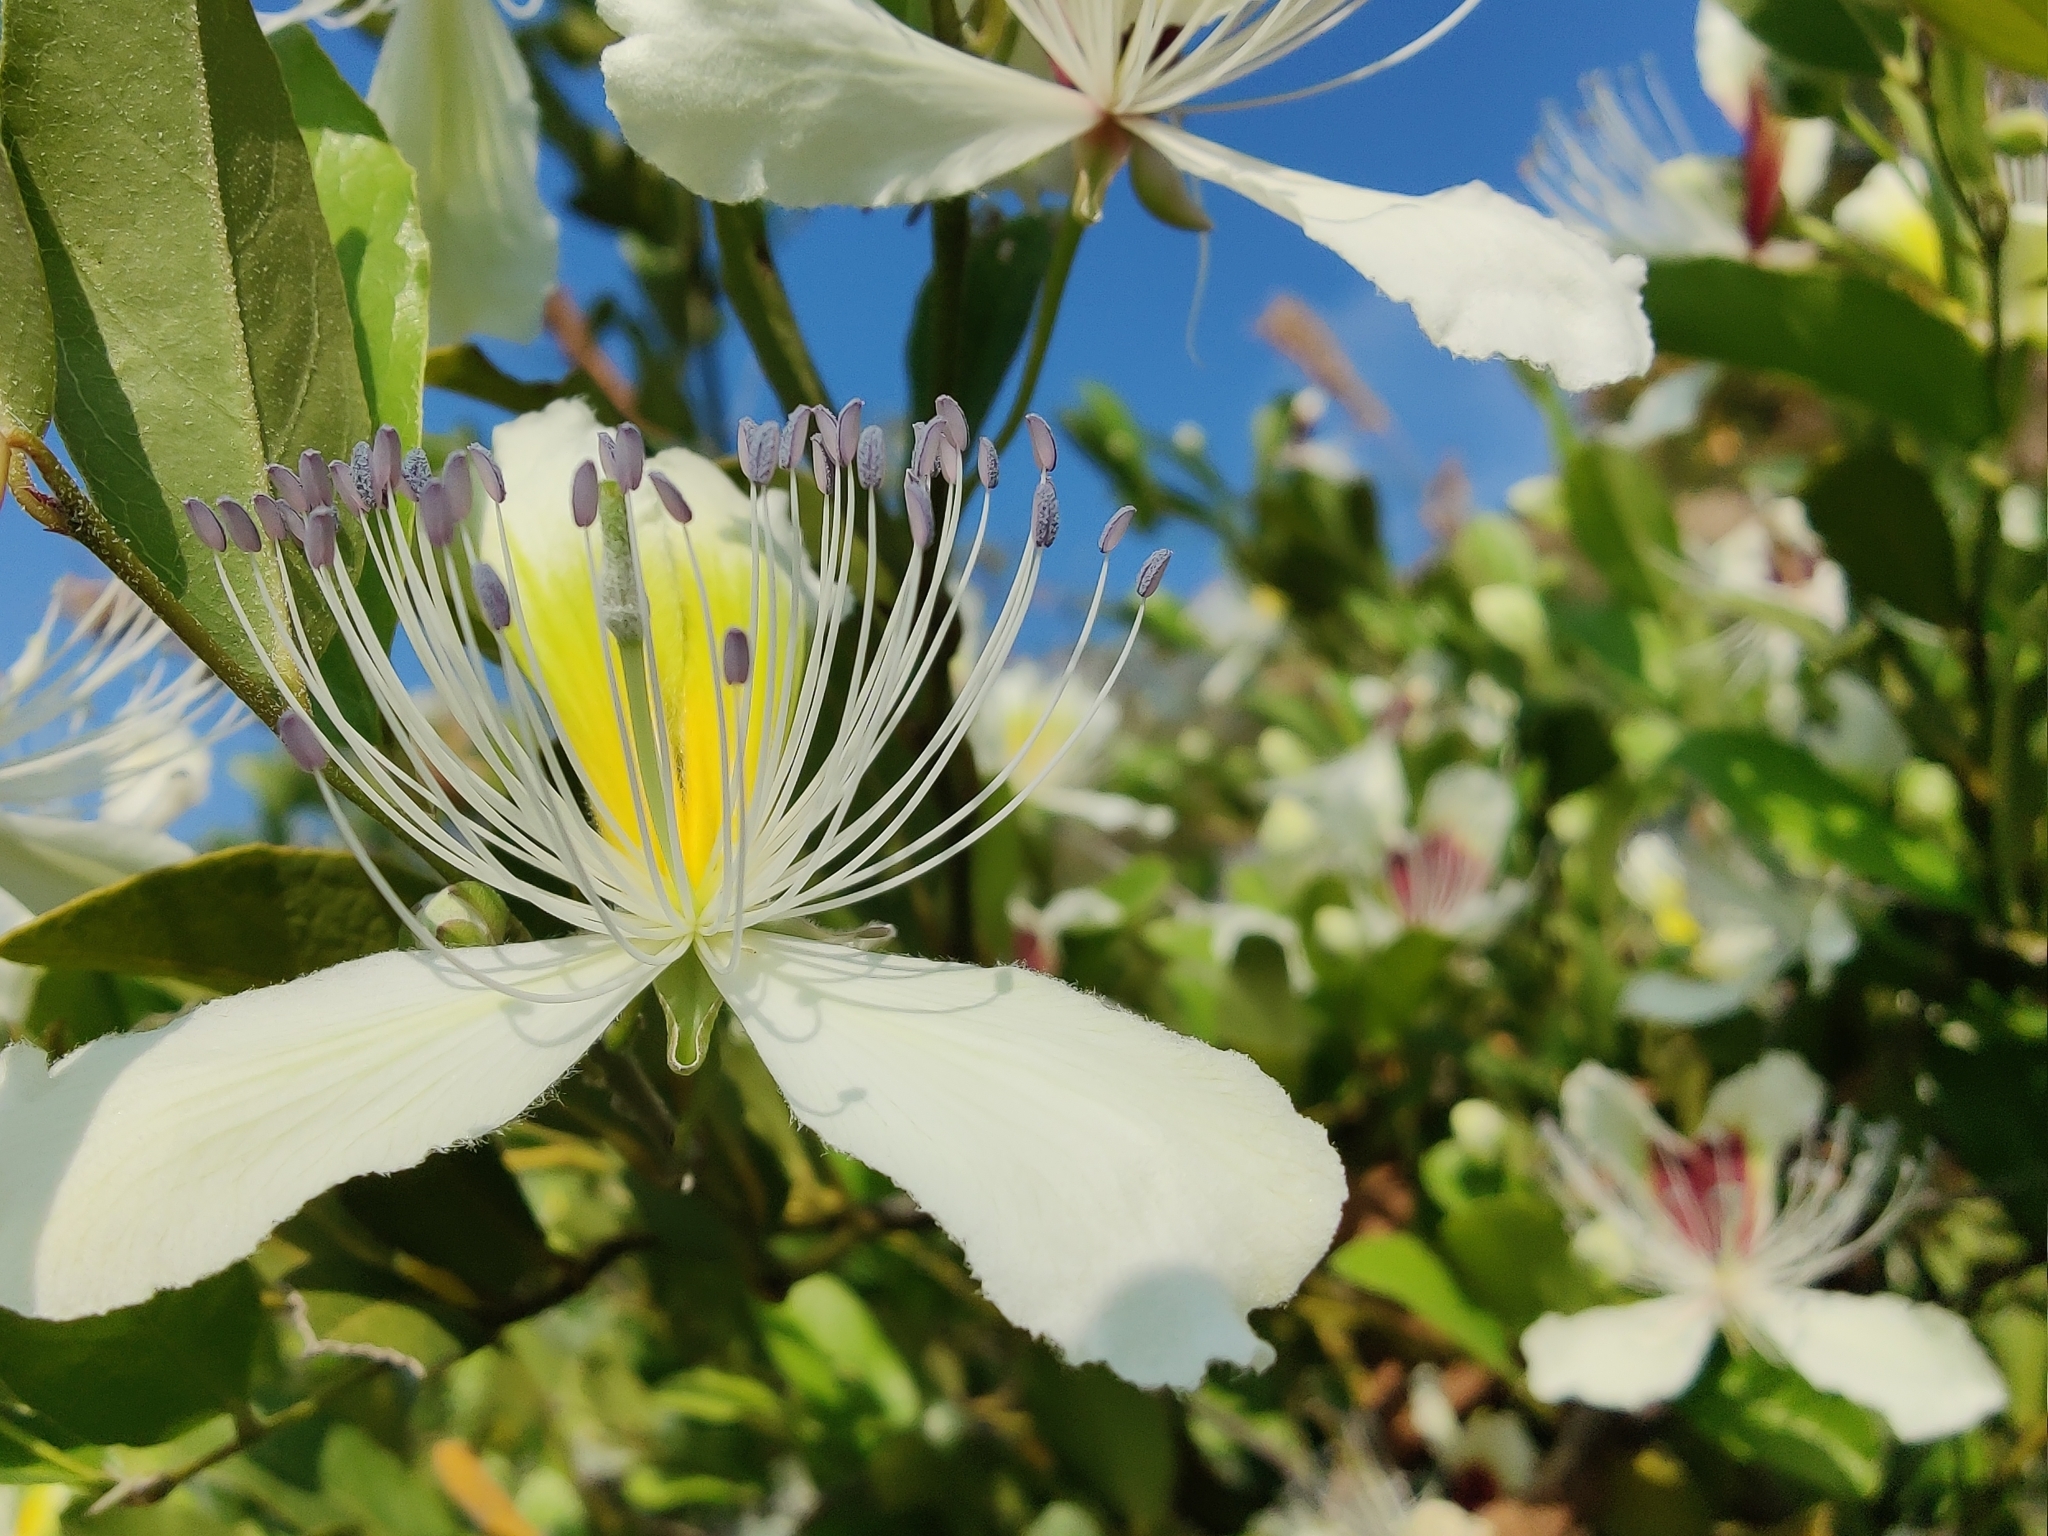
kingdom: Plantae
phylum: Tracheophyta
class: Magnoliopsida
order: Brassicales
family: Capparaceae
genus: Capparis
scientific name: Capparis brevispina
